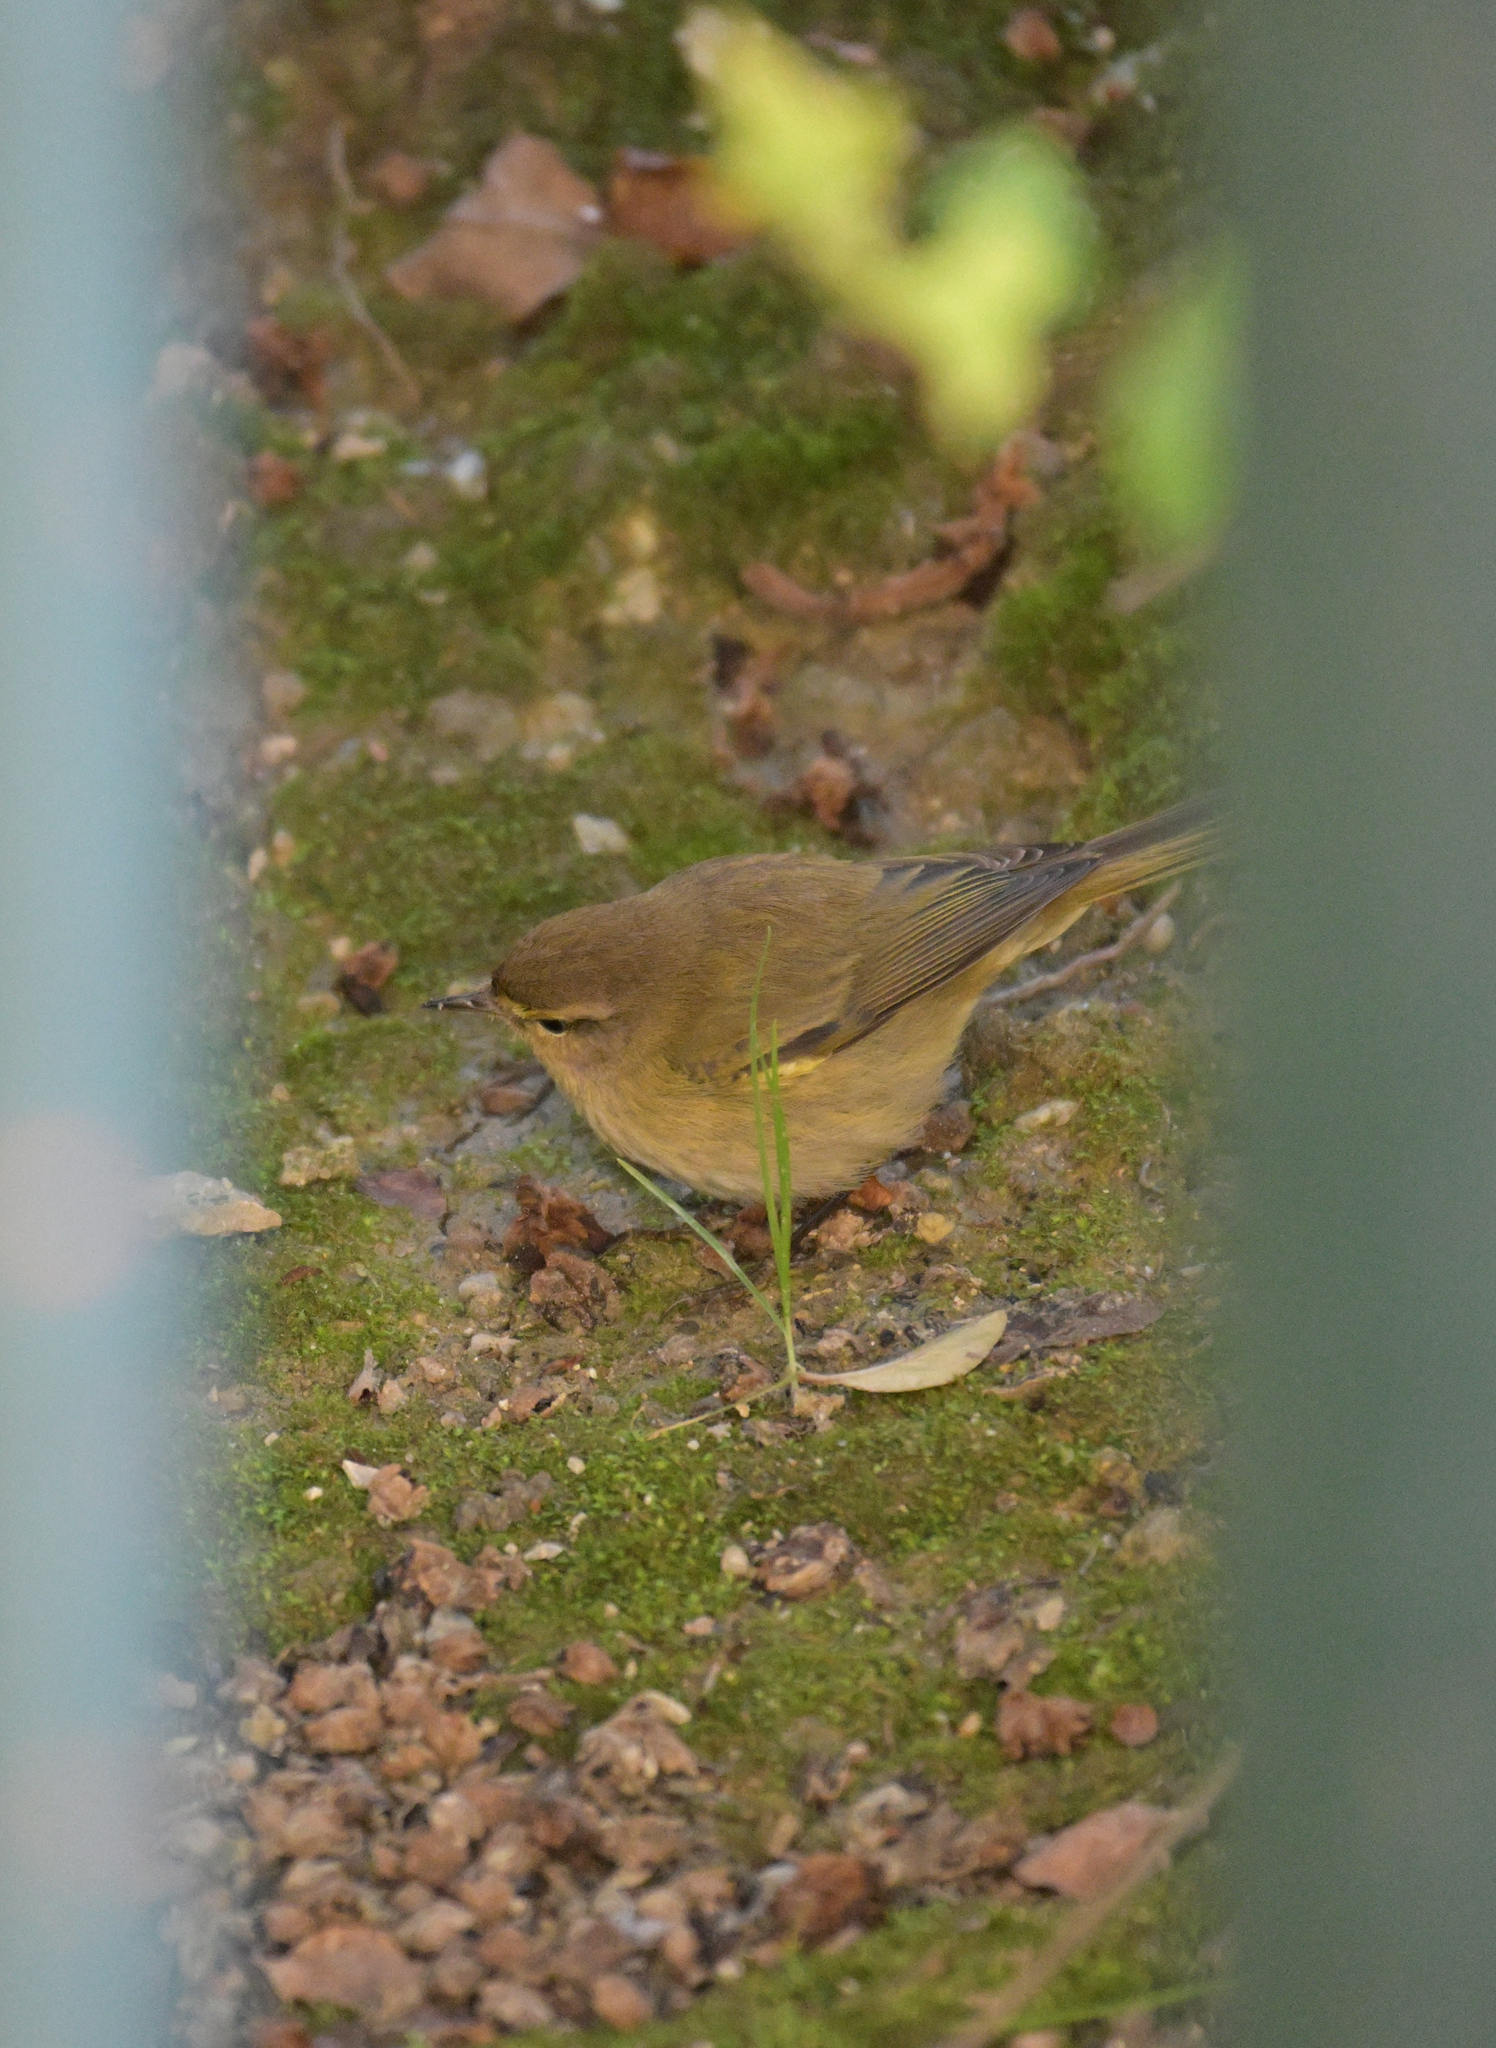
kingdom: Animalia
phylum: Chordata
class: Aves
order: Passeriformes
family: Phylloscopidae
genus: Phylloscopus
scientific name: Phylloscopus collybita
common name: Common chiffchaff
